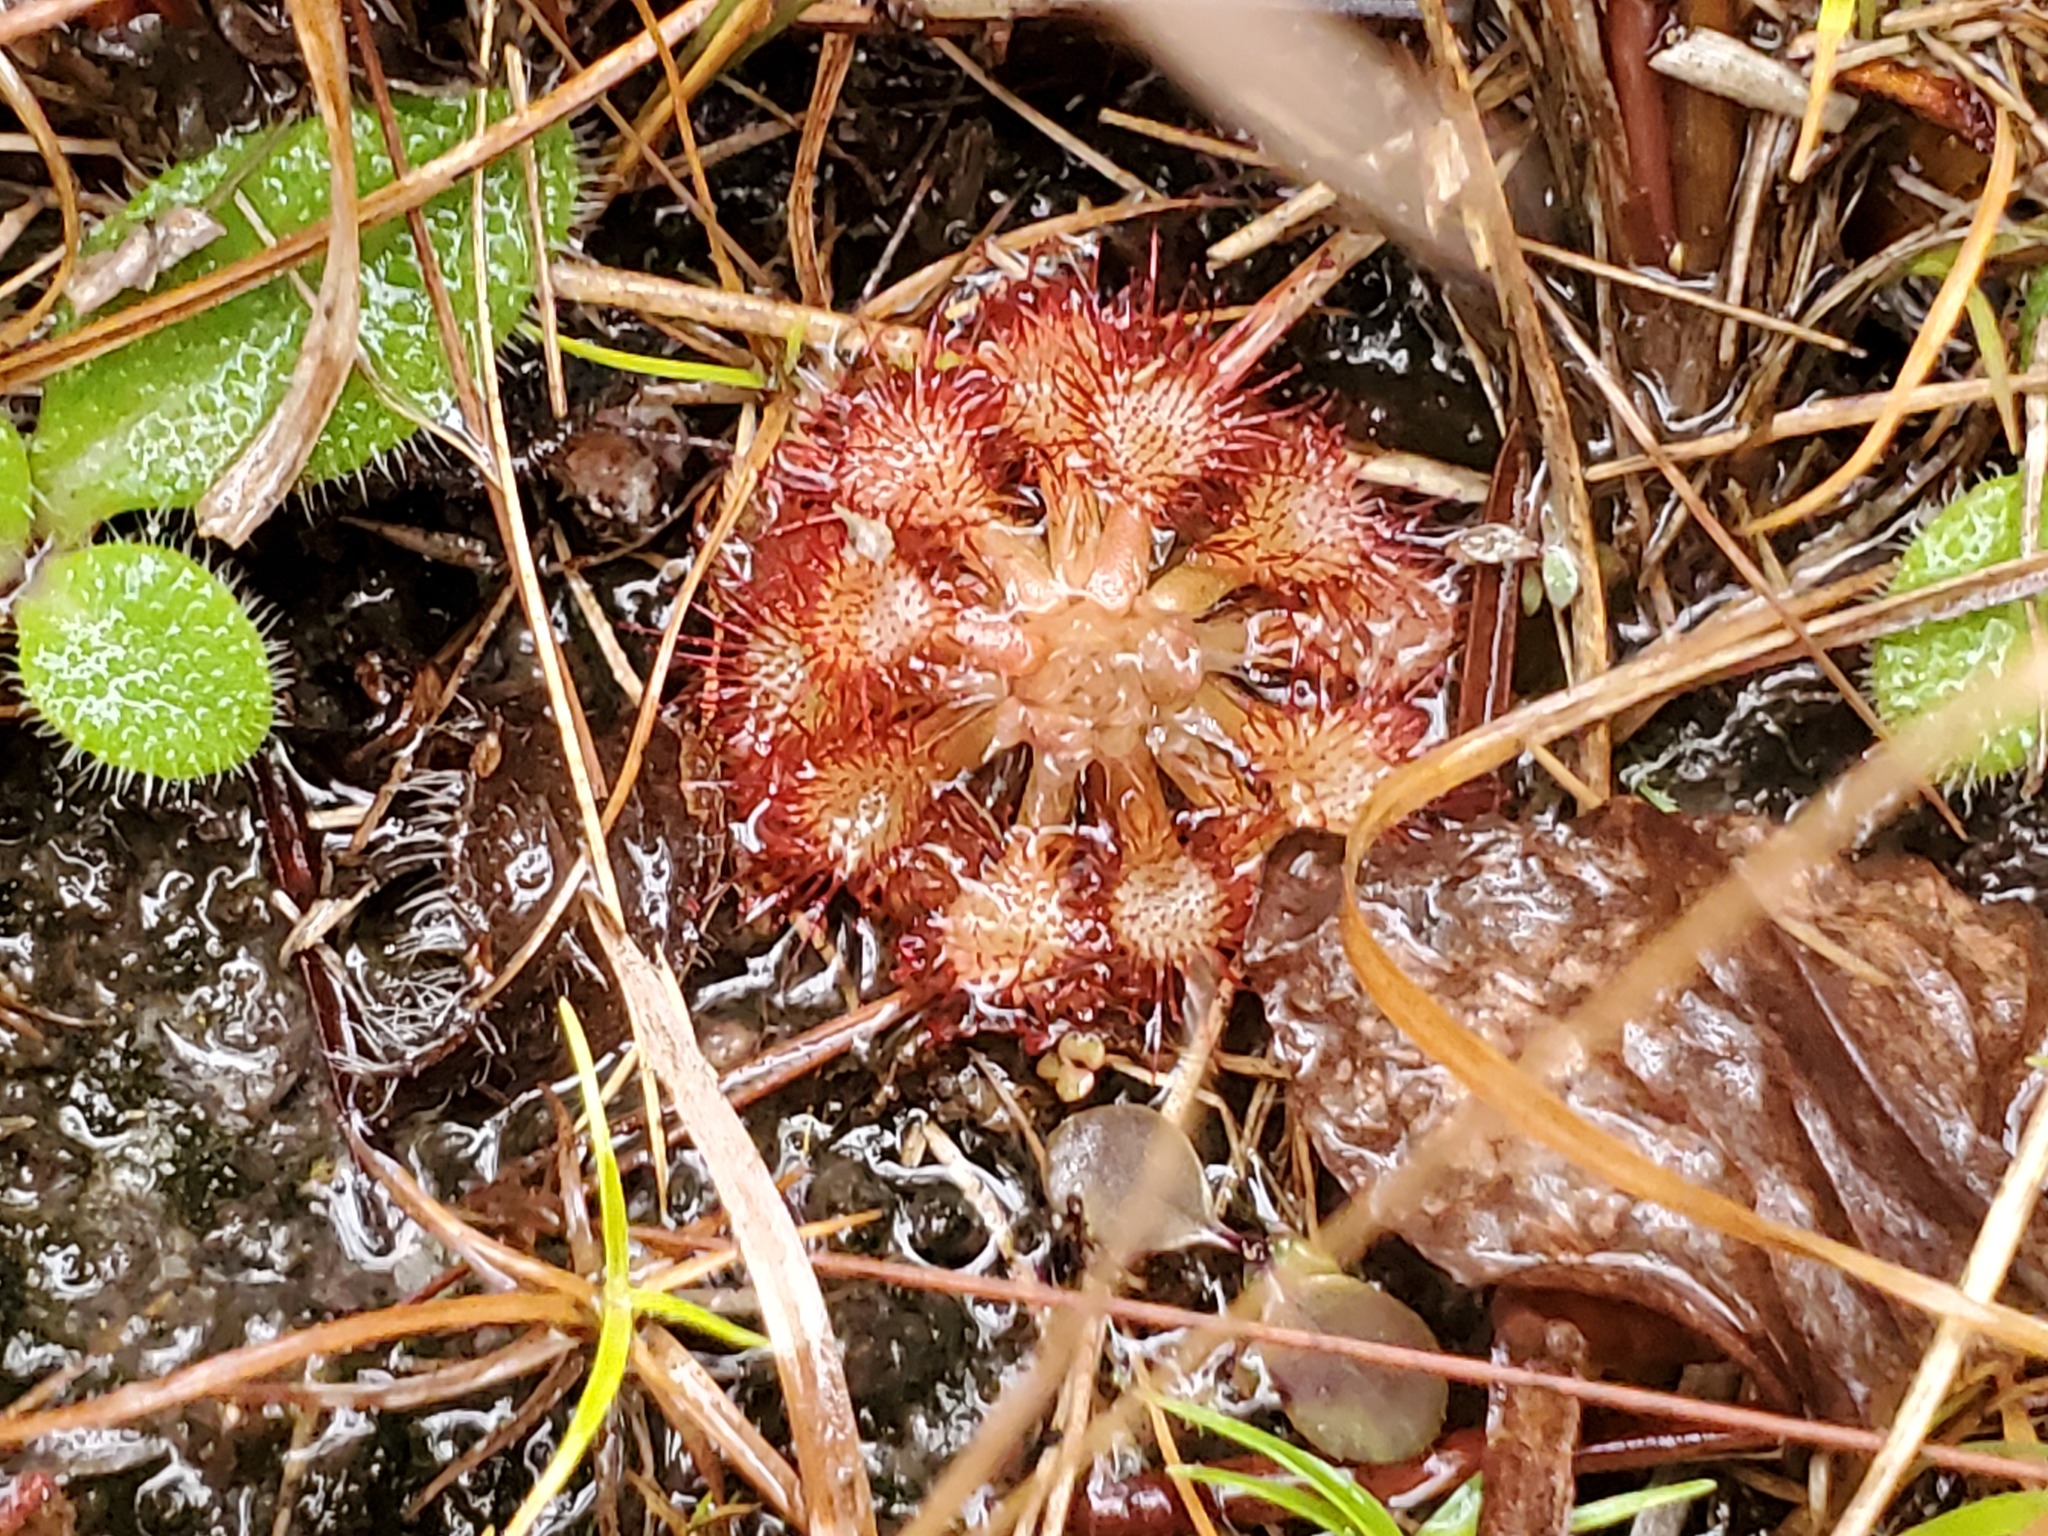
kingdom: Plantae
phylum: Tracheophyta
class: Magnoliopsida
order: Caryophyllales
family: Droseraceae
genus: Drosera
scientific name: Drosera capillaris
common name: Pink sundew
